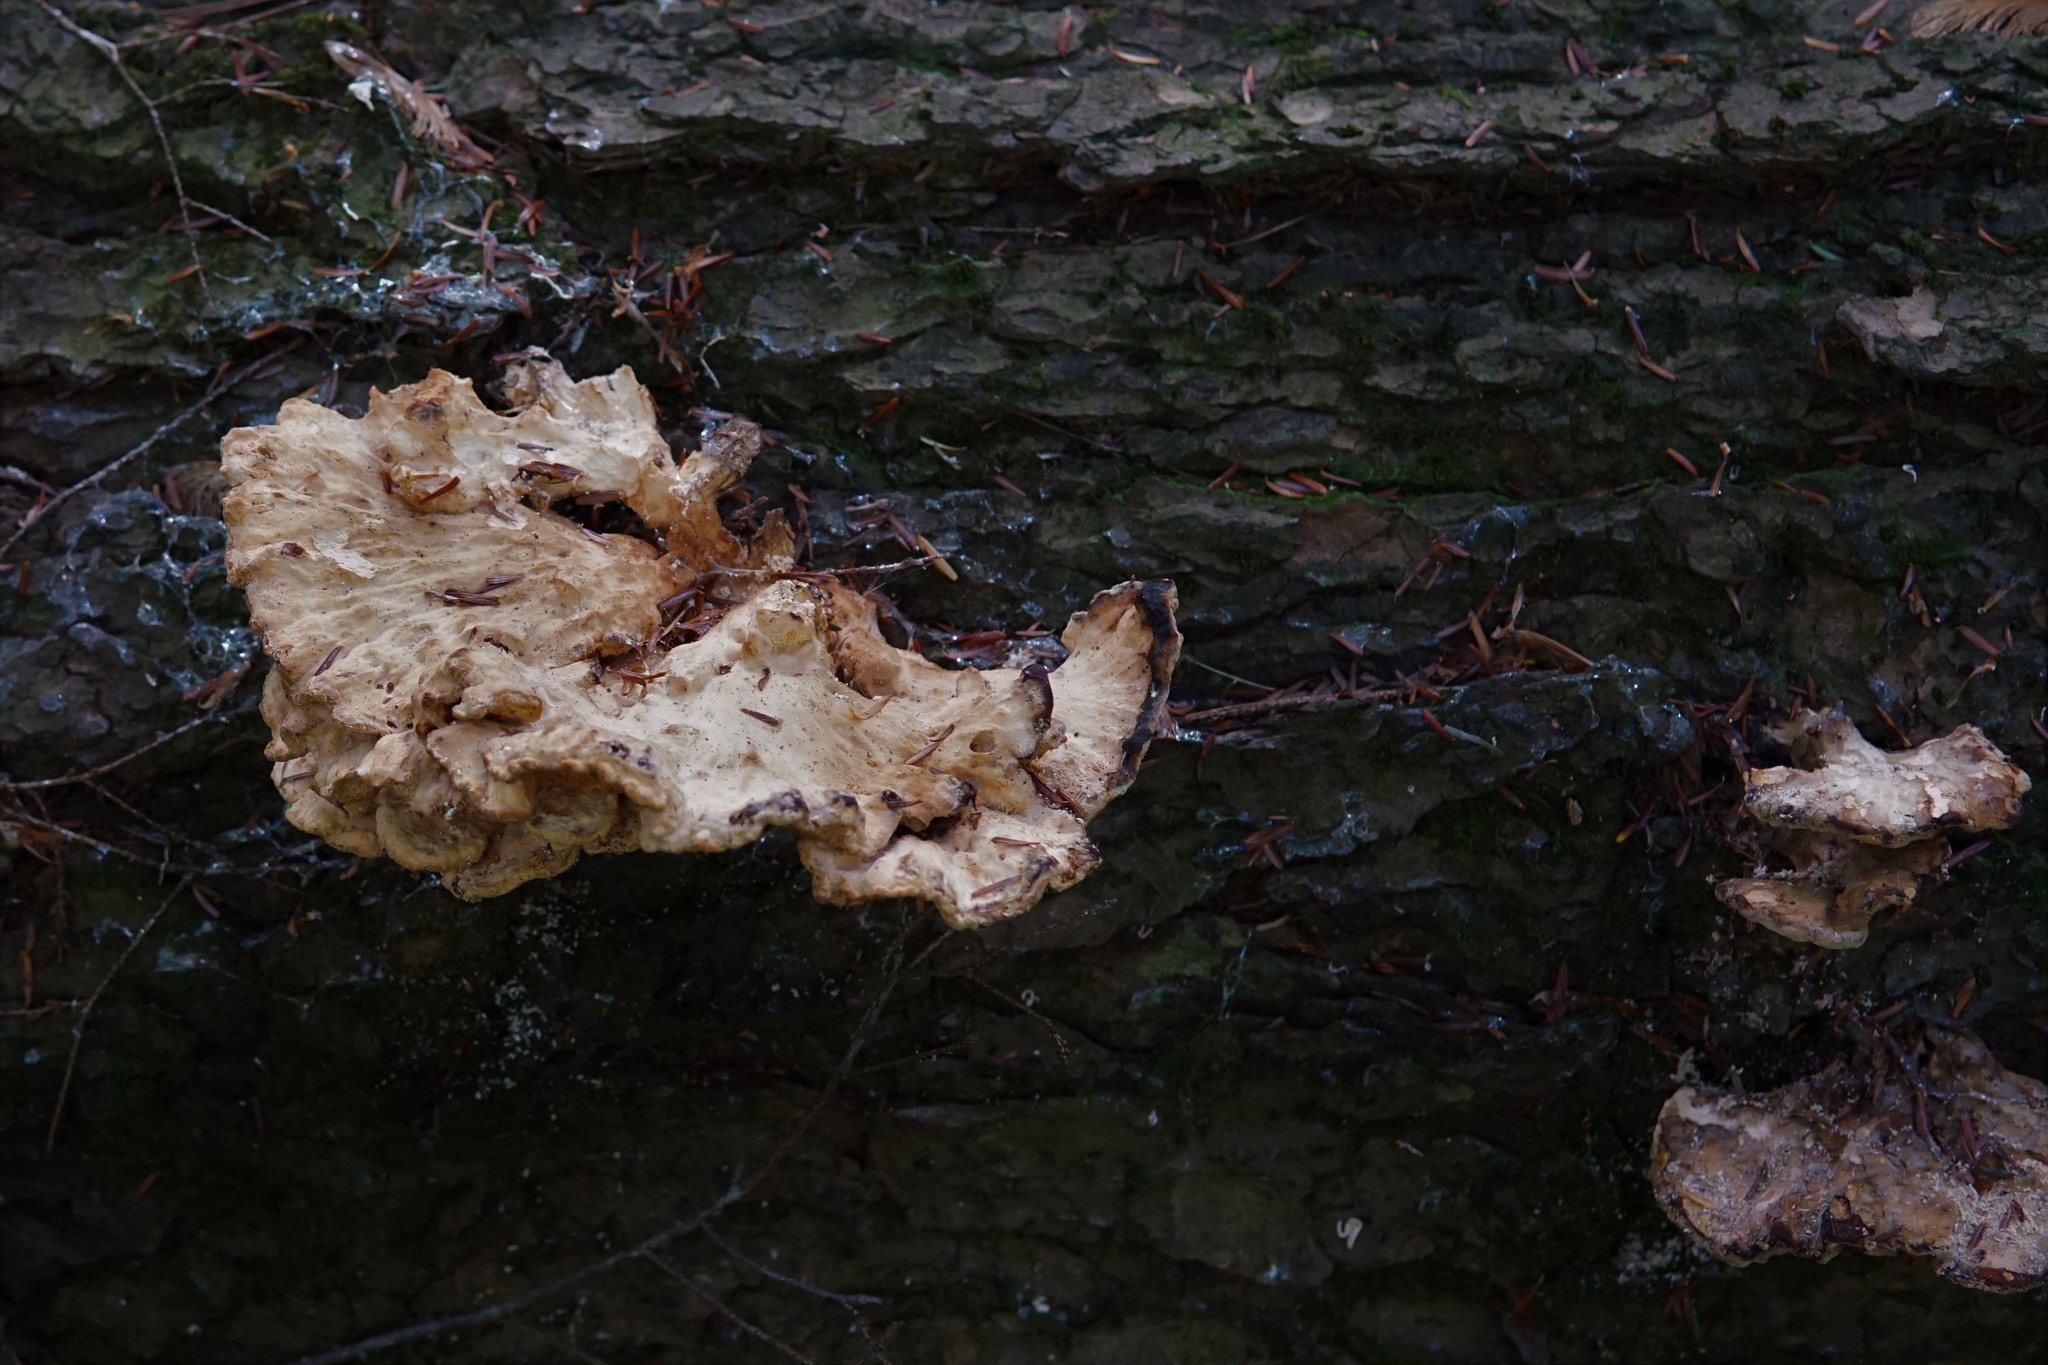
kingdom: Fungi
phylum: Basidiomycota
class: Agaricomycetes
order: Polyporales
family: Laetiporaceae
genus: Laetiporus
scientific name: Laetiporus huroniensis
